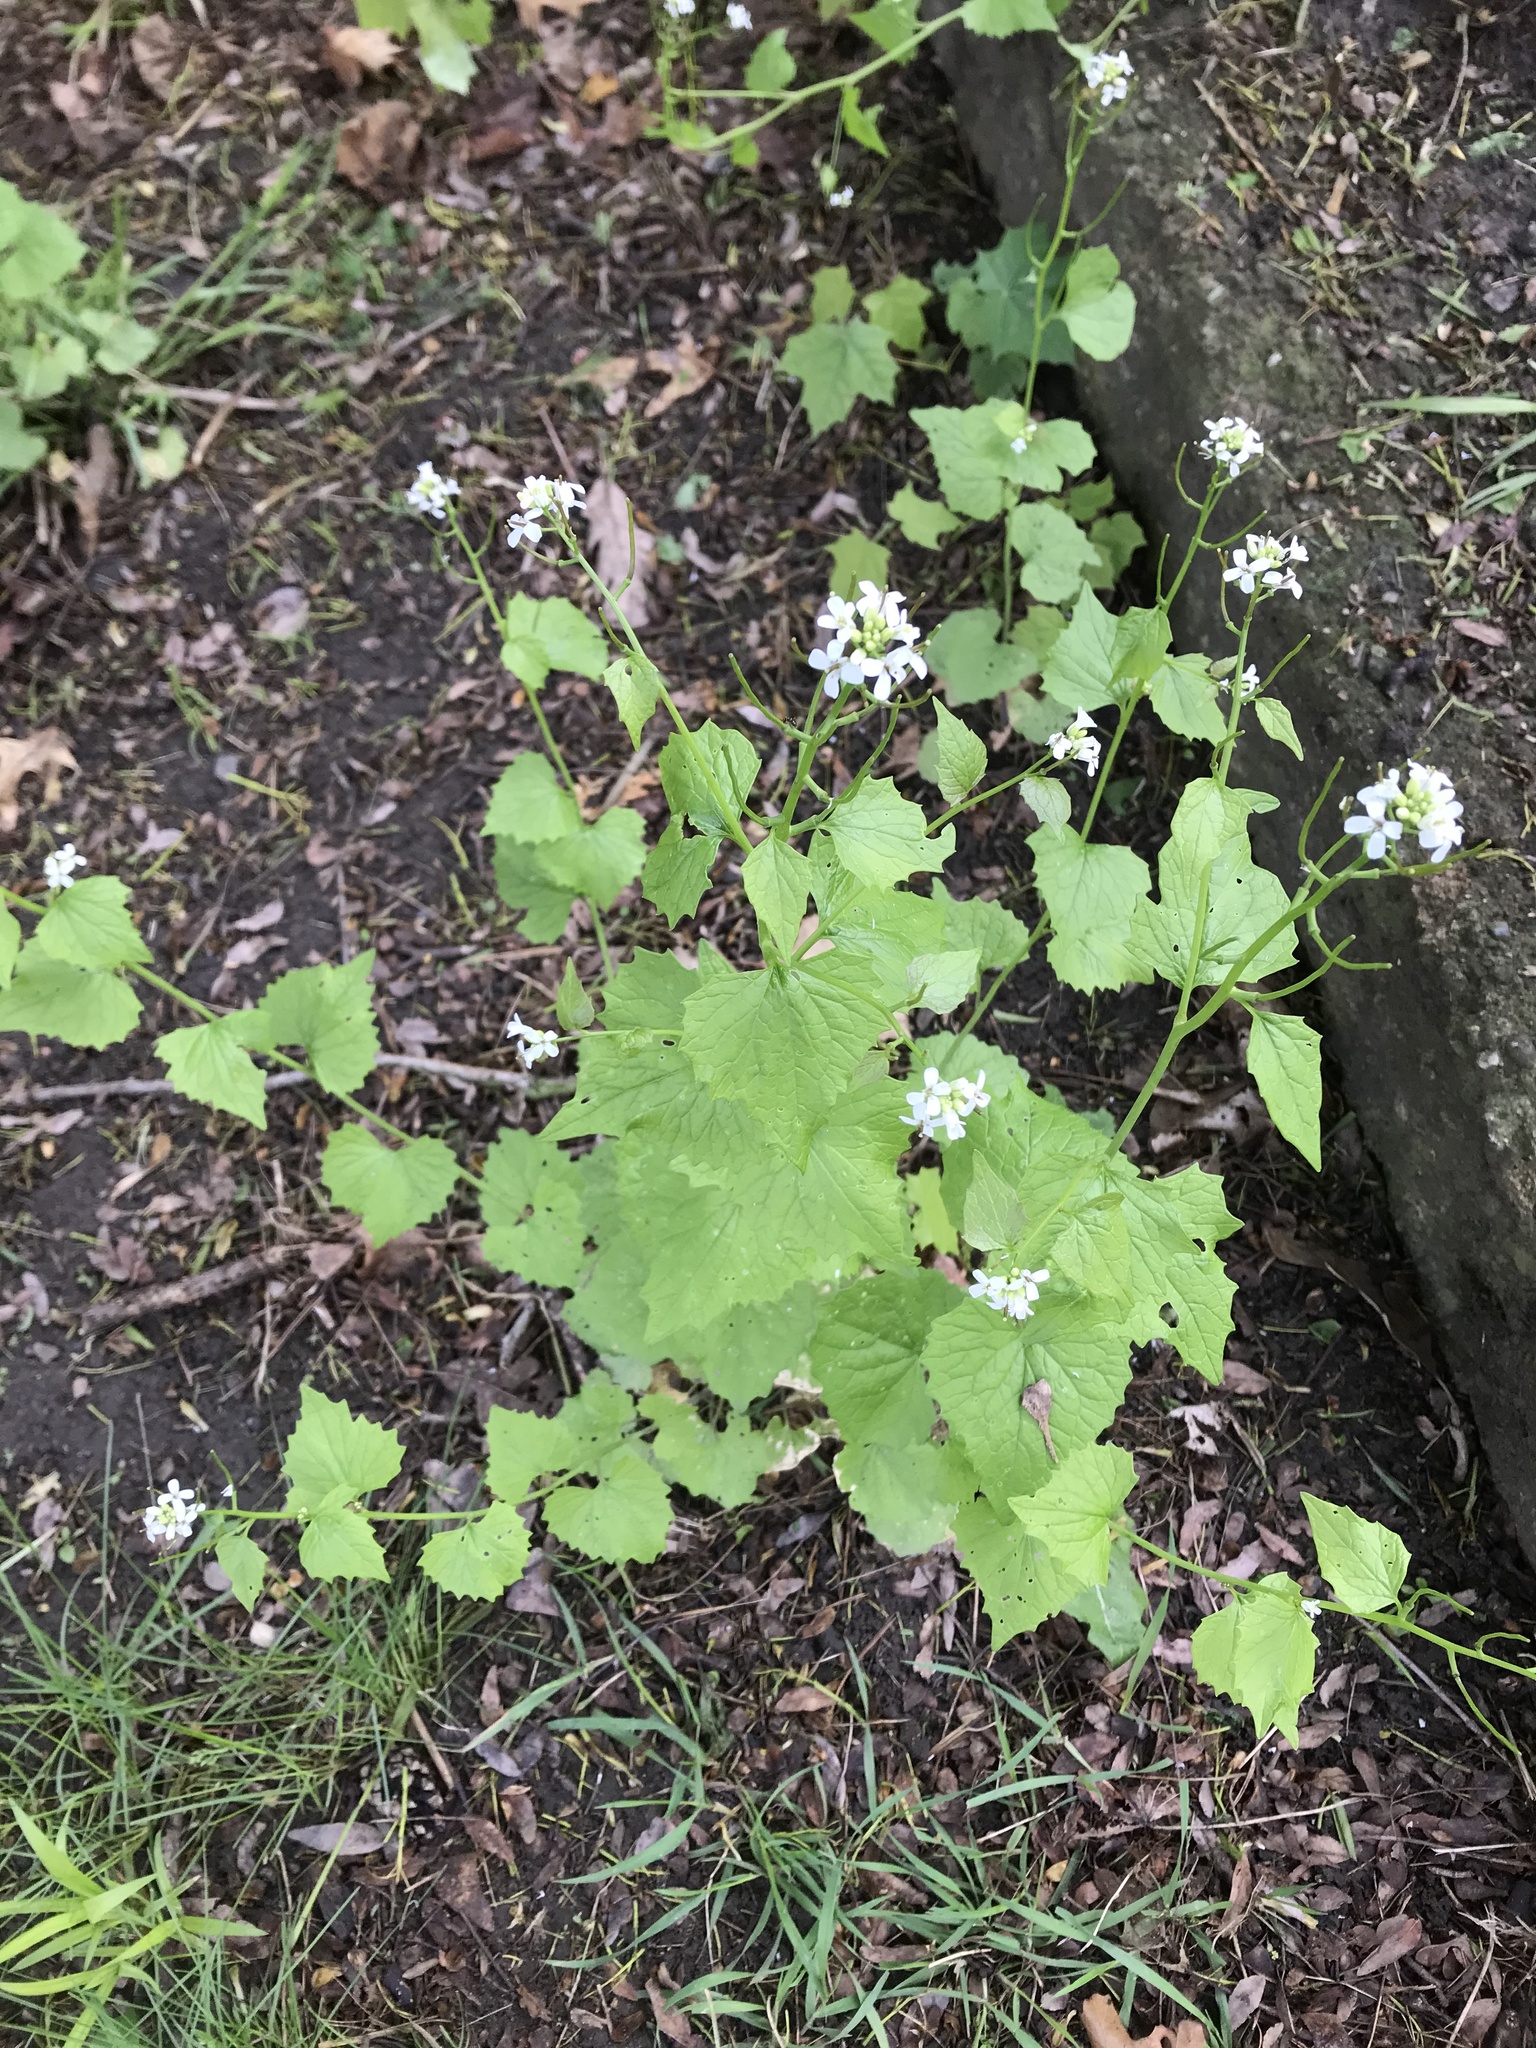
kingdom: Plantae
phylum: Tracheophyta
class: Magnoliopsida
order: Brassicales
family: Brassicaceae
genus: Alliaria
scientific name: Alliaria petiolata
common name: Garlic mustard
